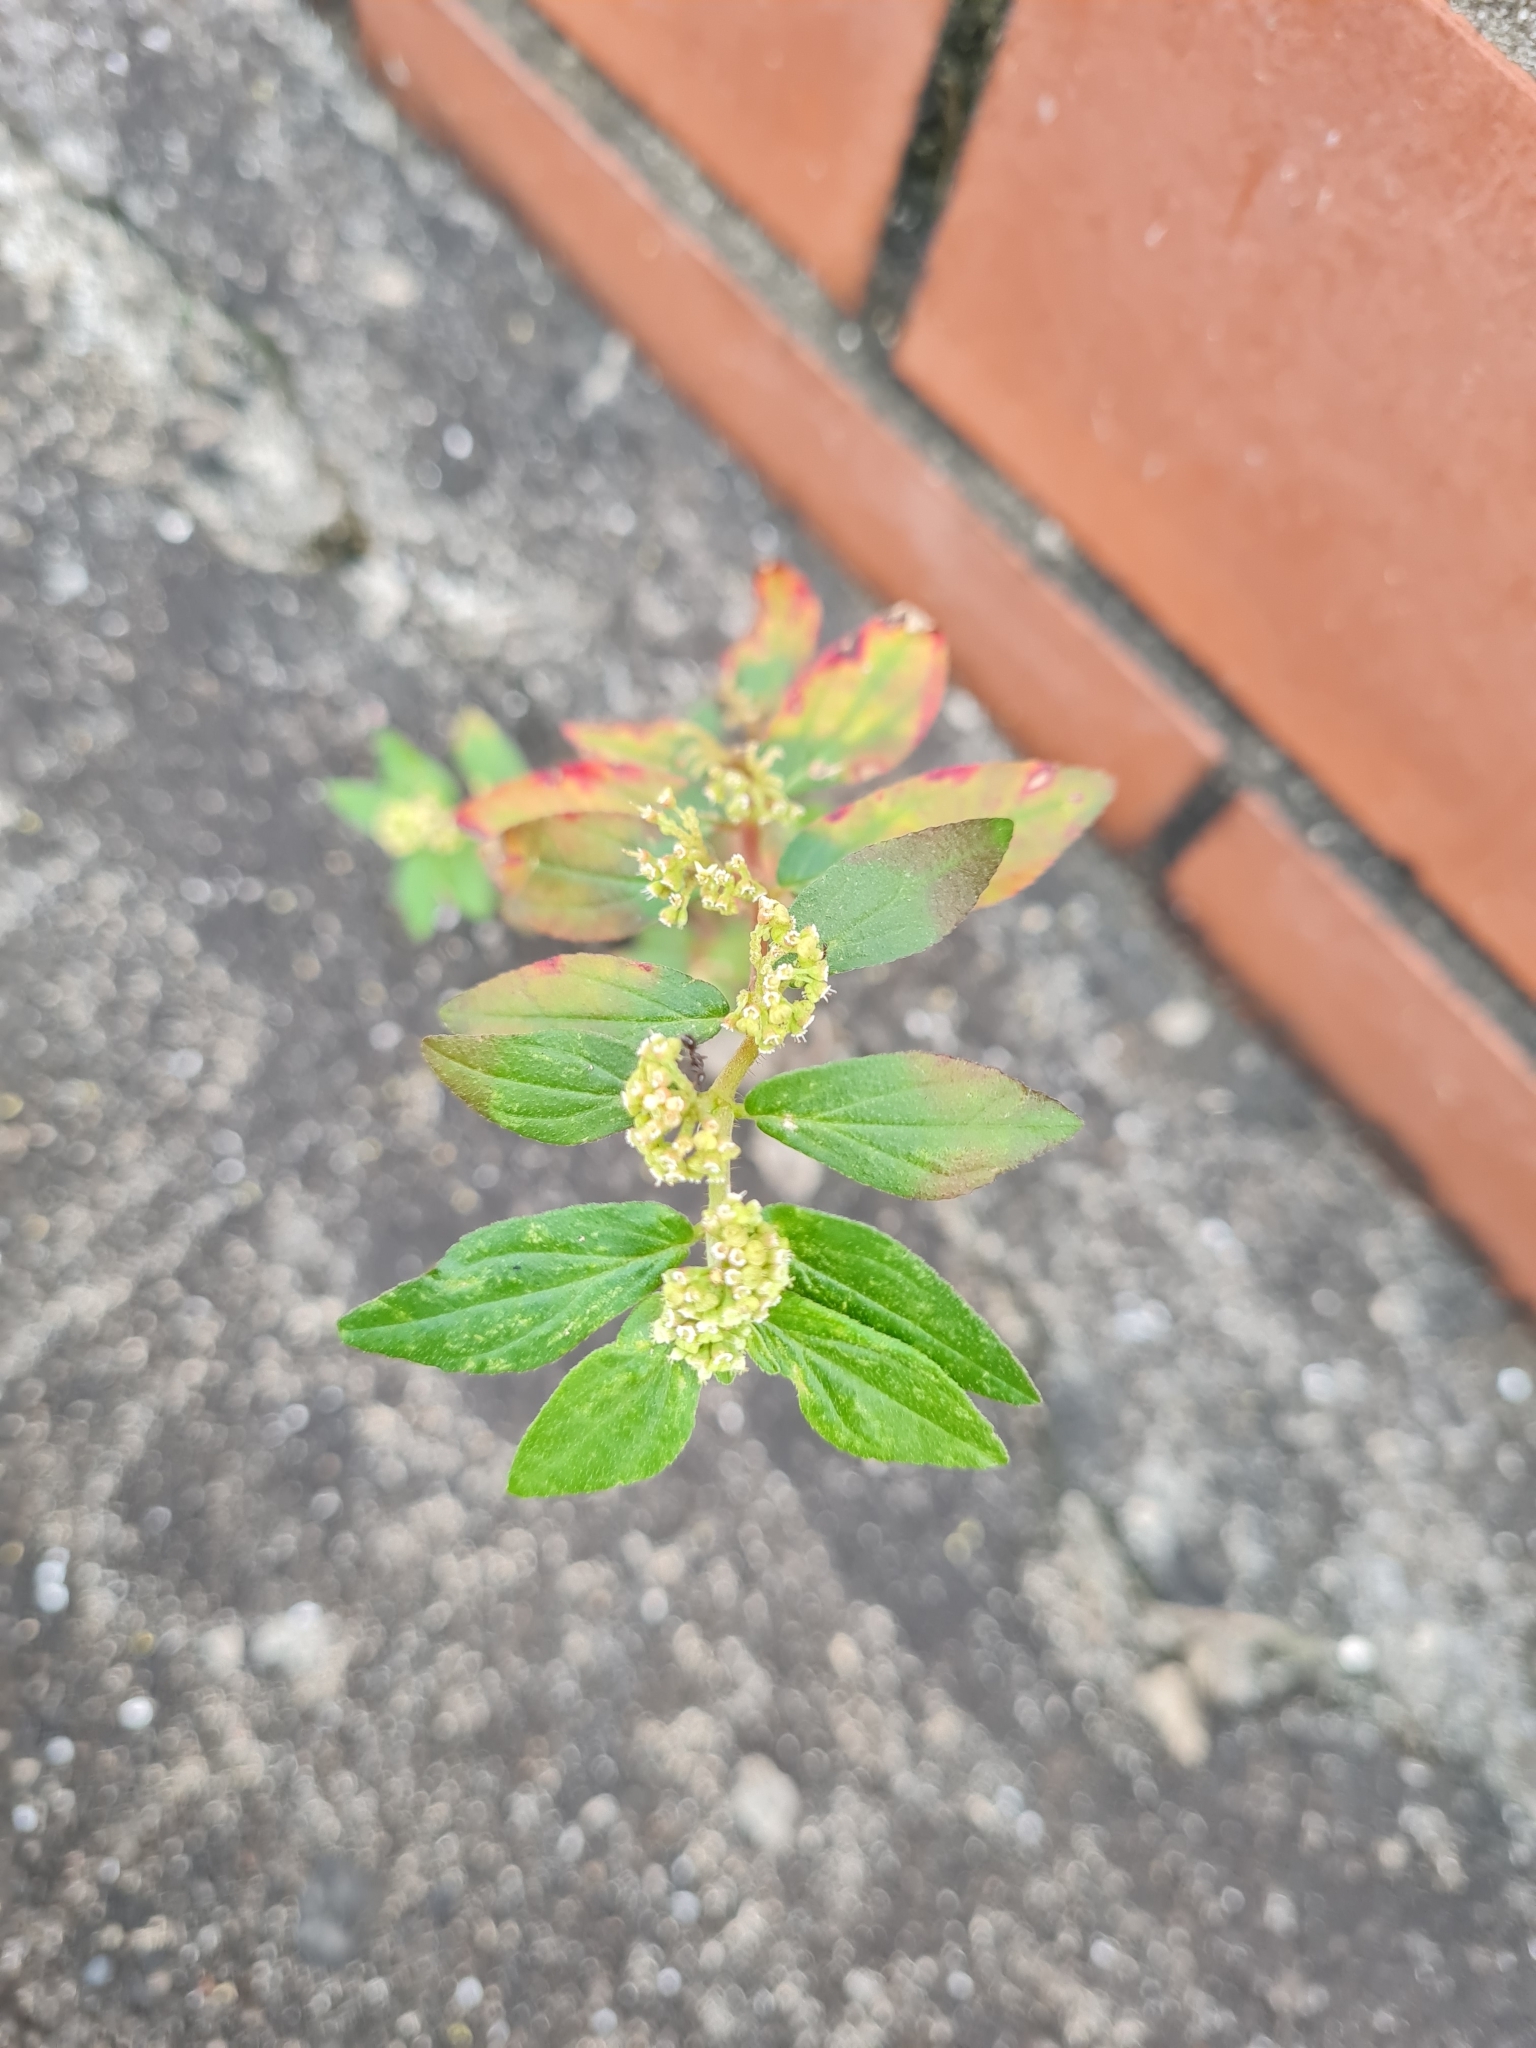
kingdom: Plantae
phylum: Tracheophyta
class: Magnoliopsida
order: Malpighiales
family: Euphorbiaceae
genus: Euphorbia
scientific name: Euphorbia hirta
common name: Pillpod sandmat
